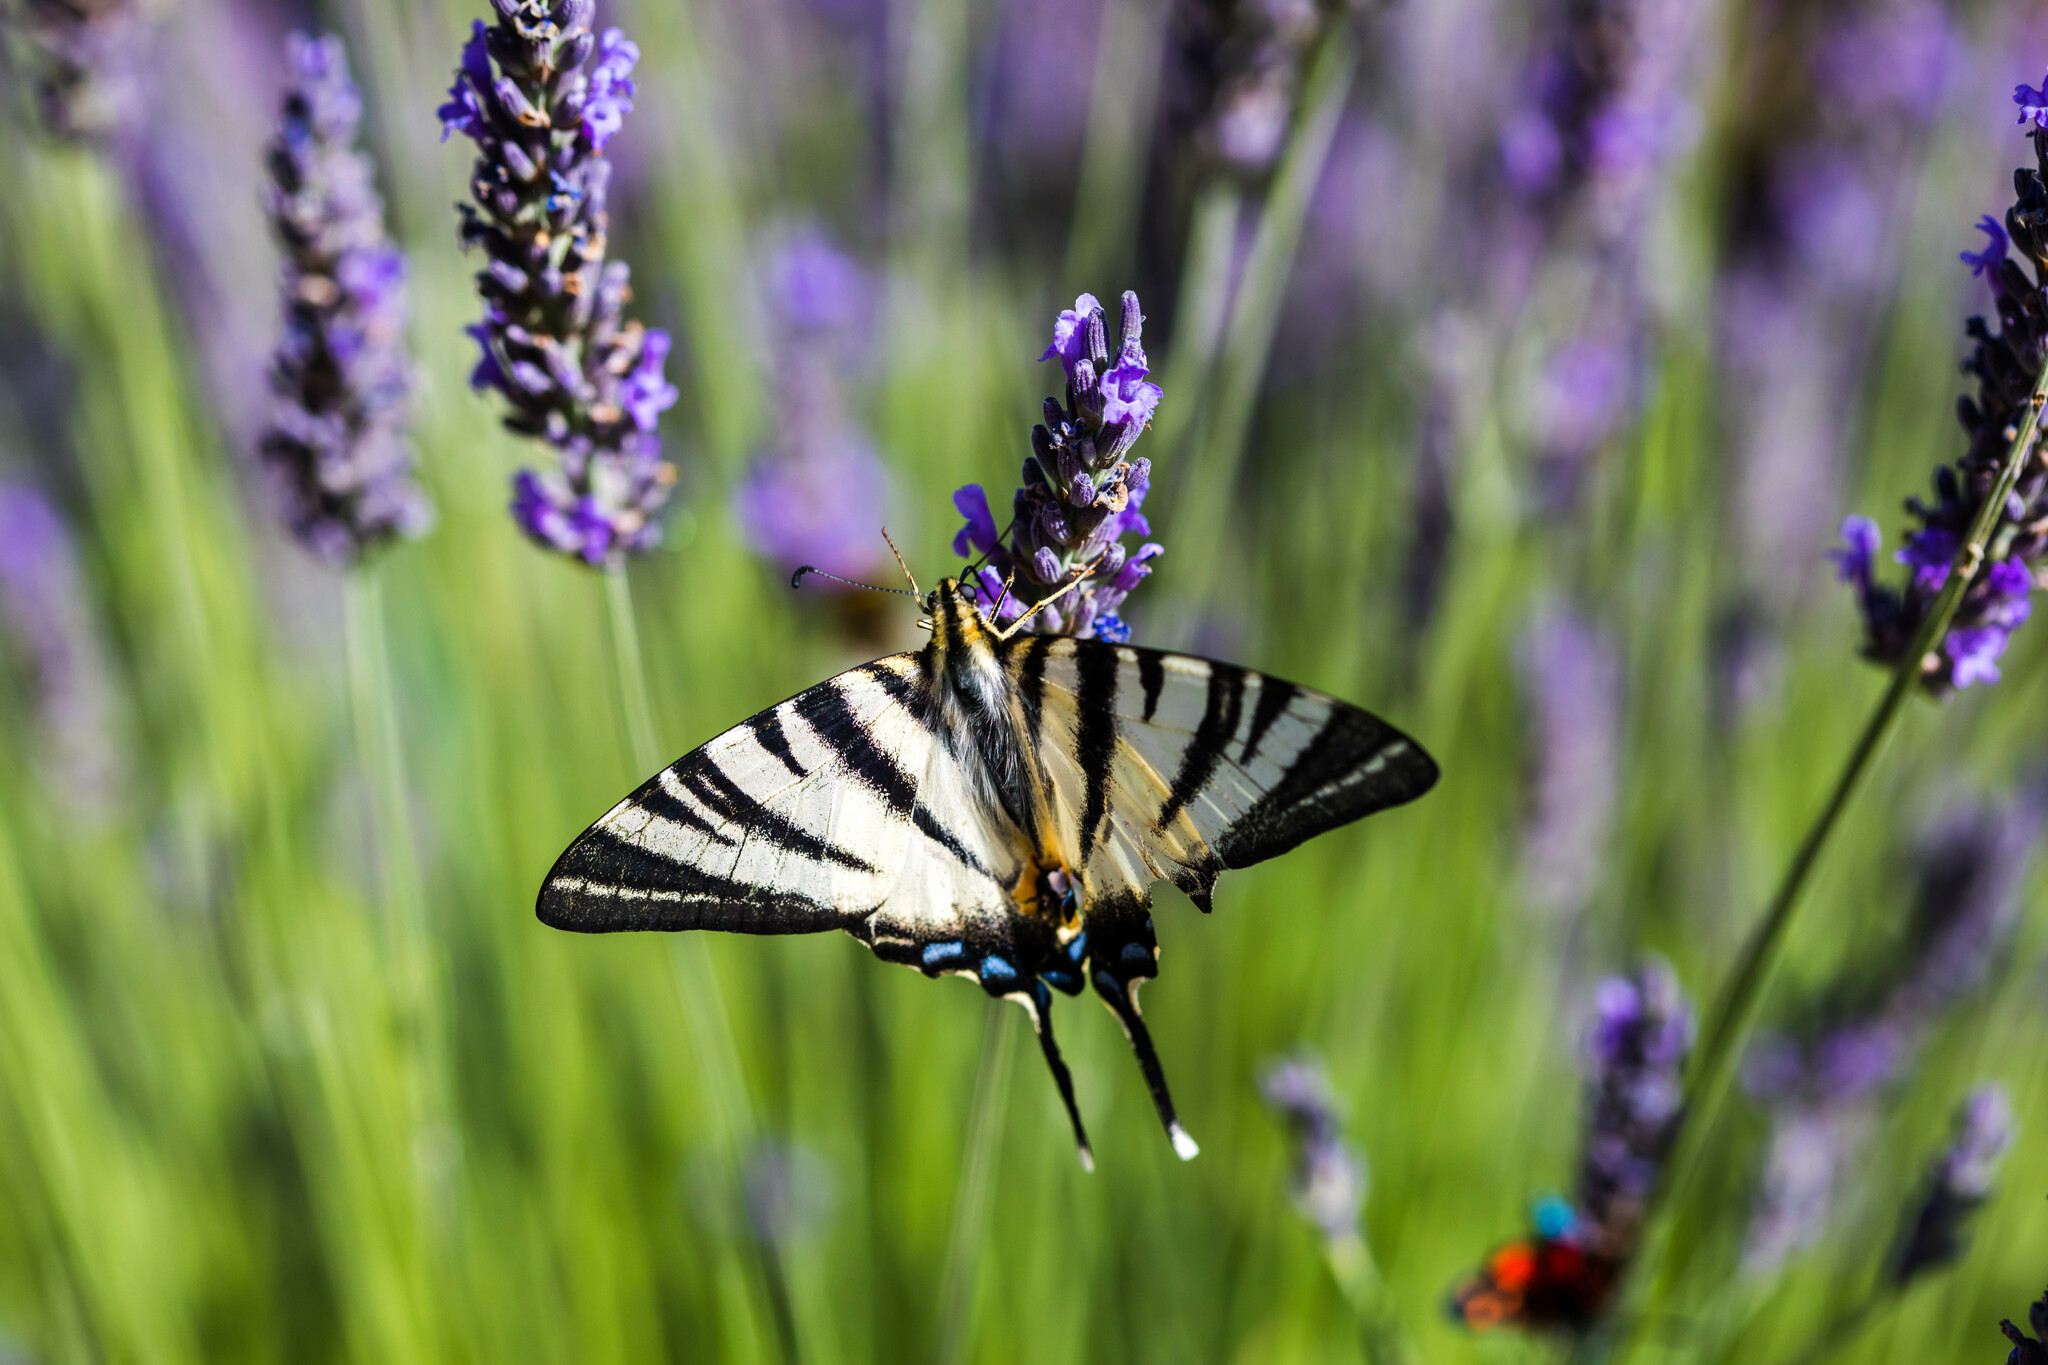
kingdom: Animalia
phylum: Arthropoda
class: Insecta
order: Lepidoptera
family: Papilionidae
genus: Iphiclides
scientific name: Iphiclides podalirius
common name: Scarce swallowtail
